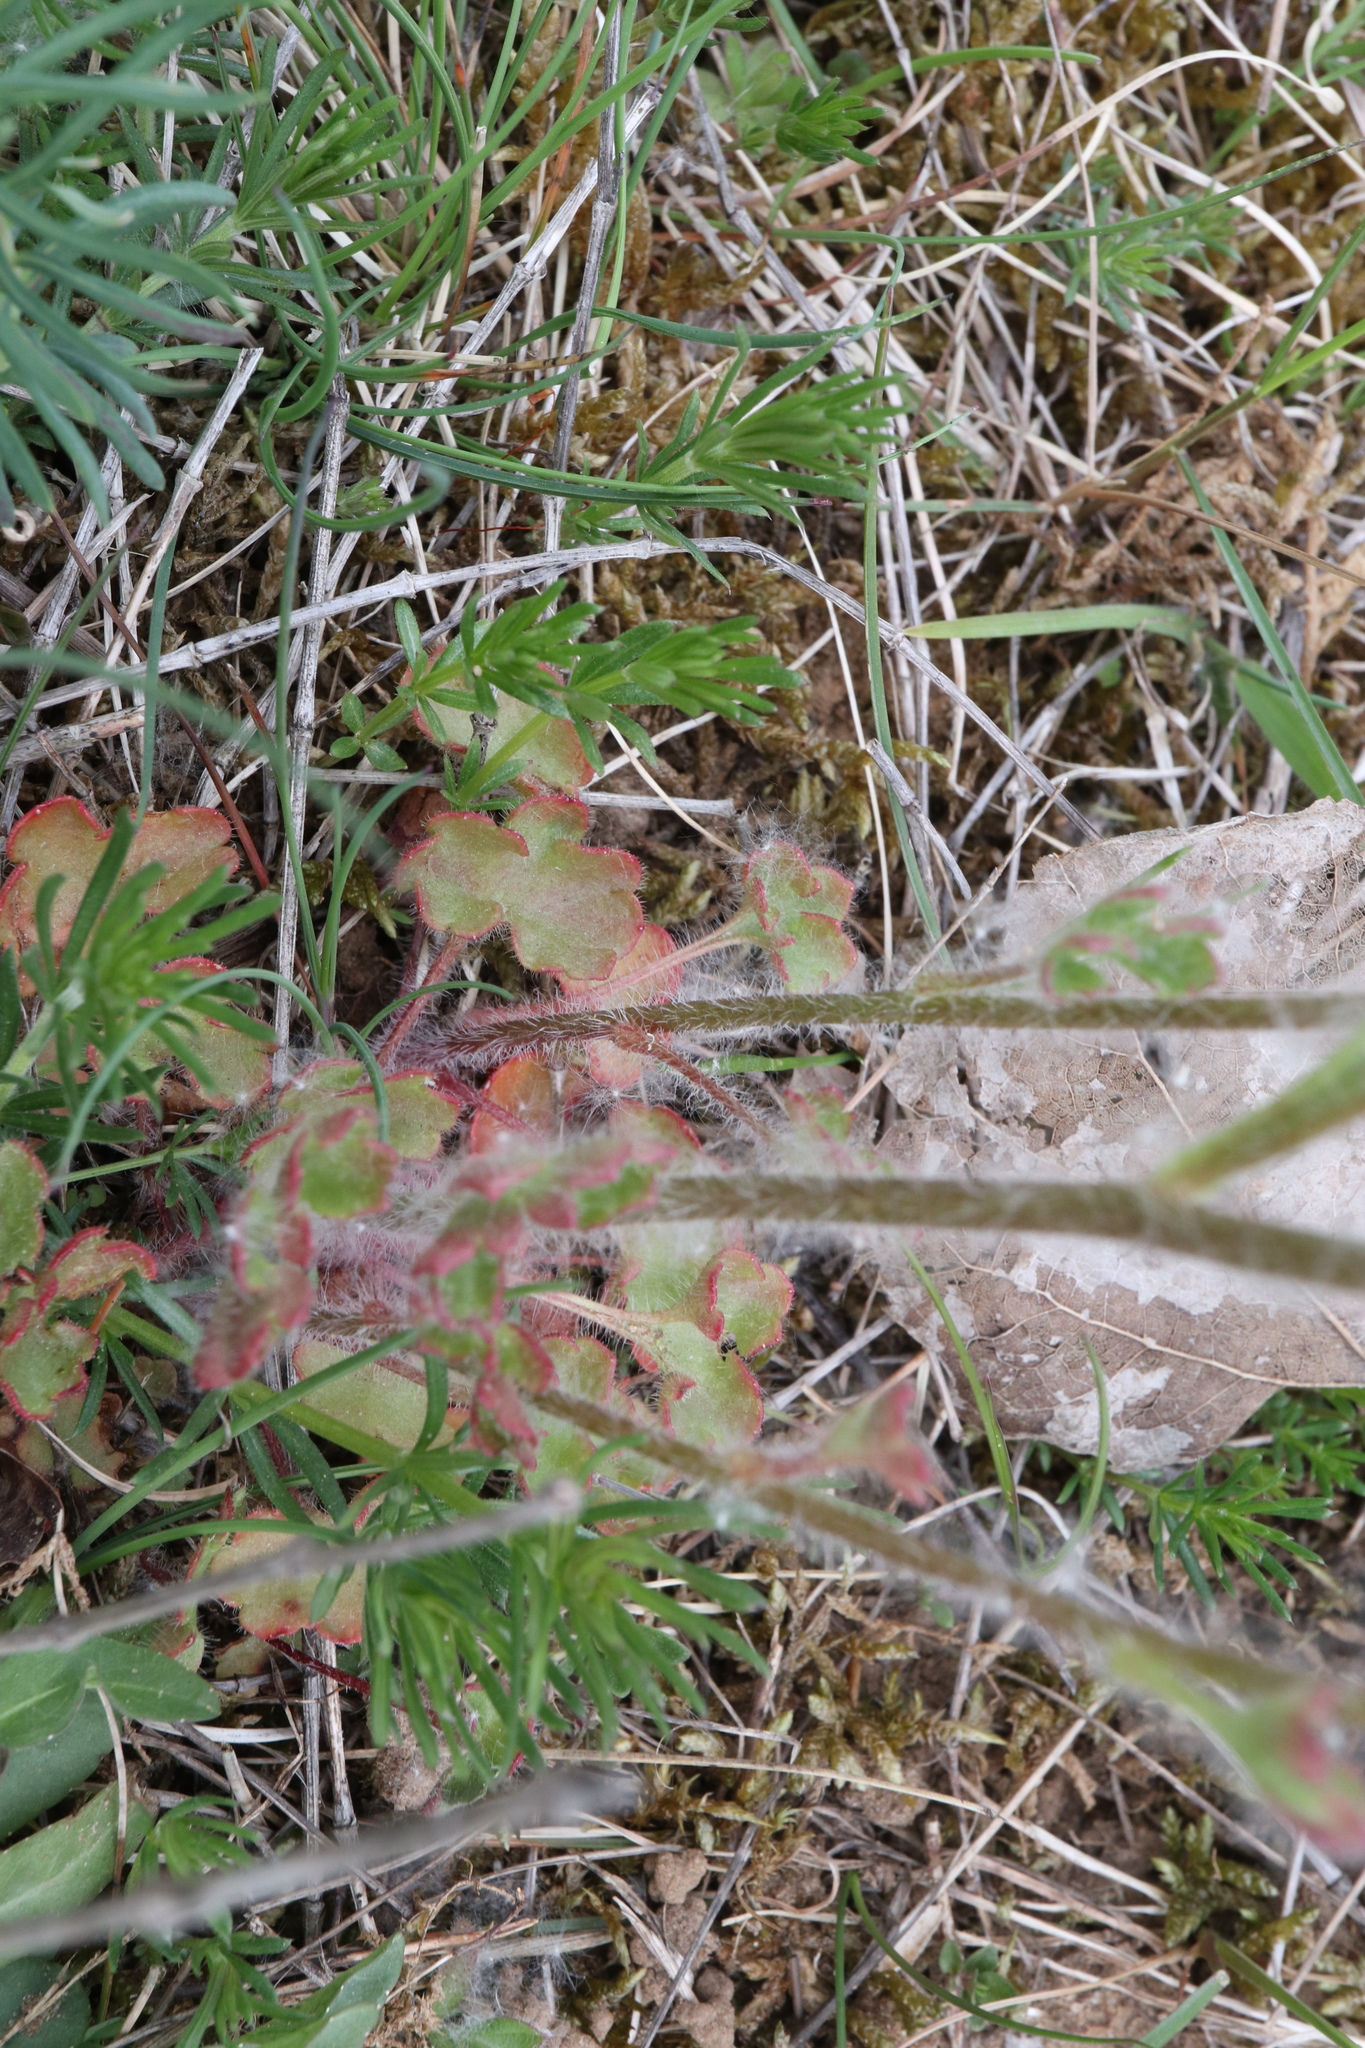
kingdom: Plantae
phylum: Tracheophyta
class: Magnoliopsida
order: Saxifragales
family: Saxifragaceae
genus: Saxifraga
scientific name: Saxifraga granulata
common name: Meadow saxifrage
